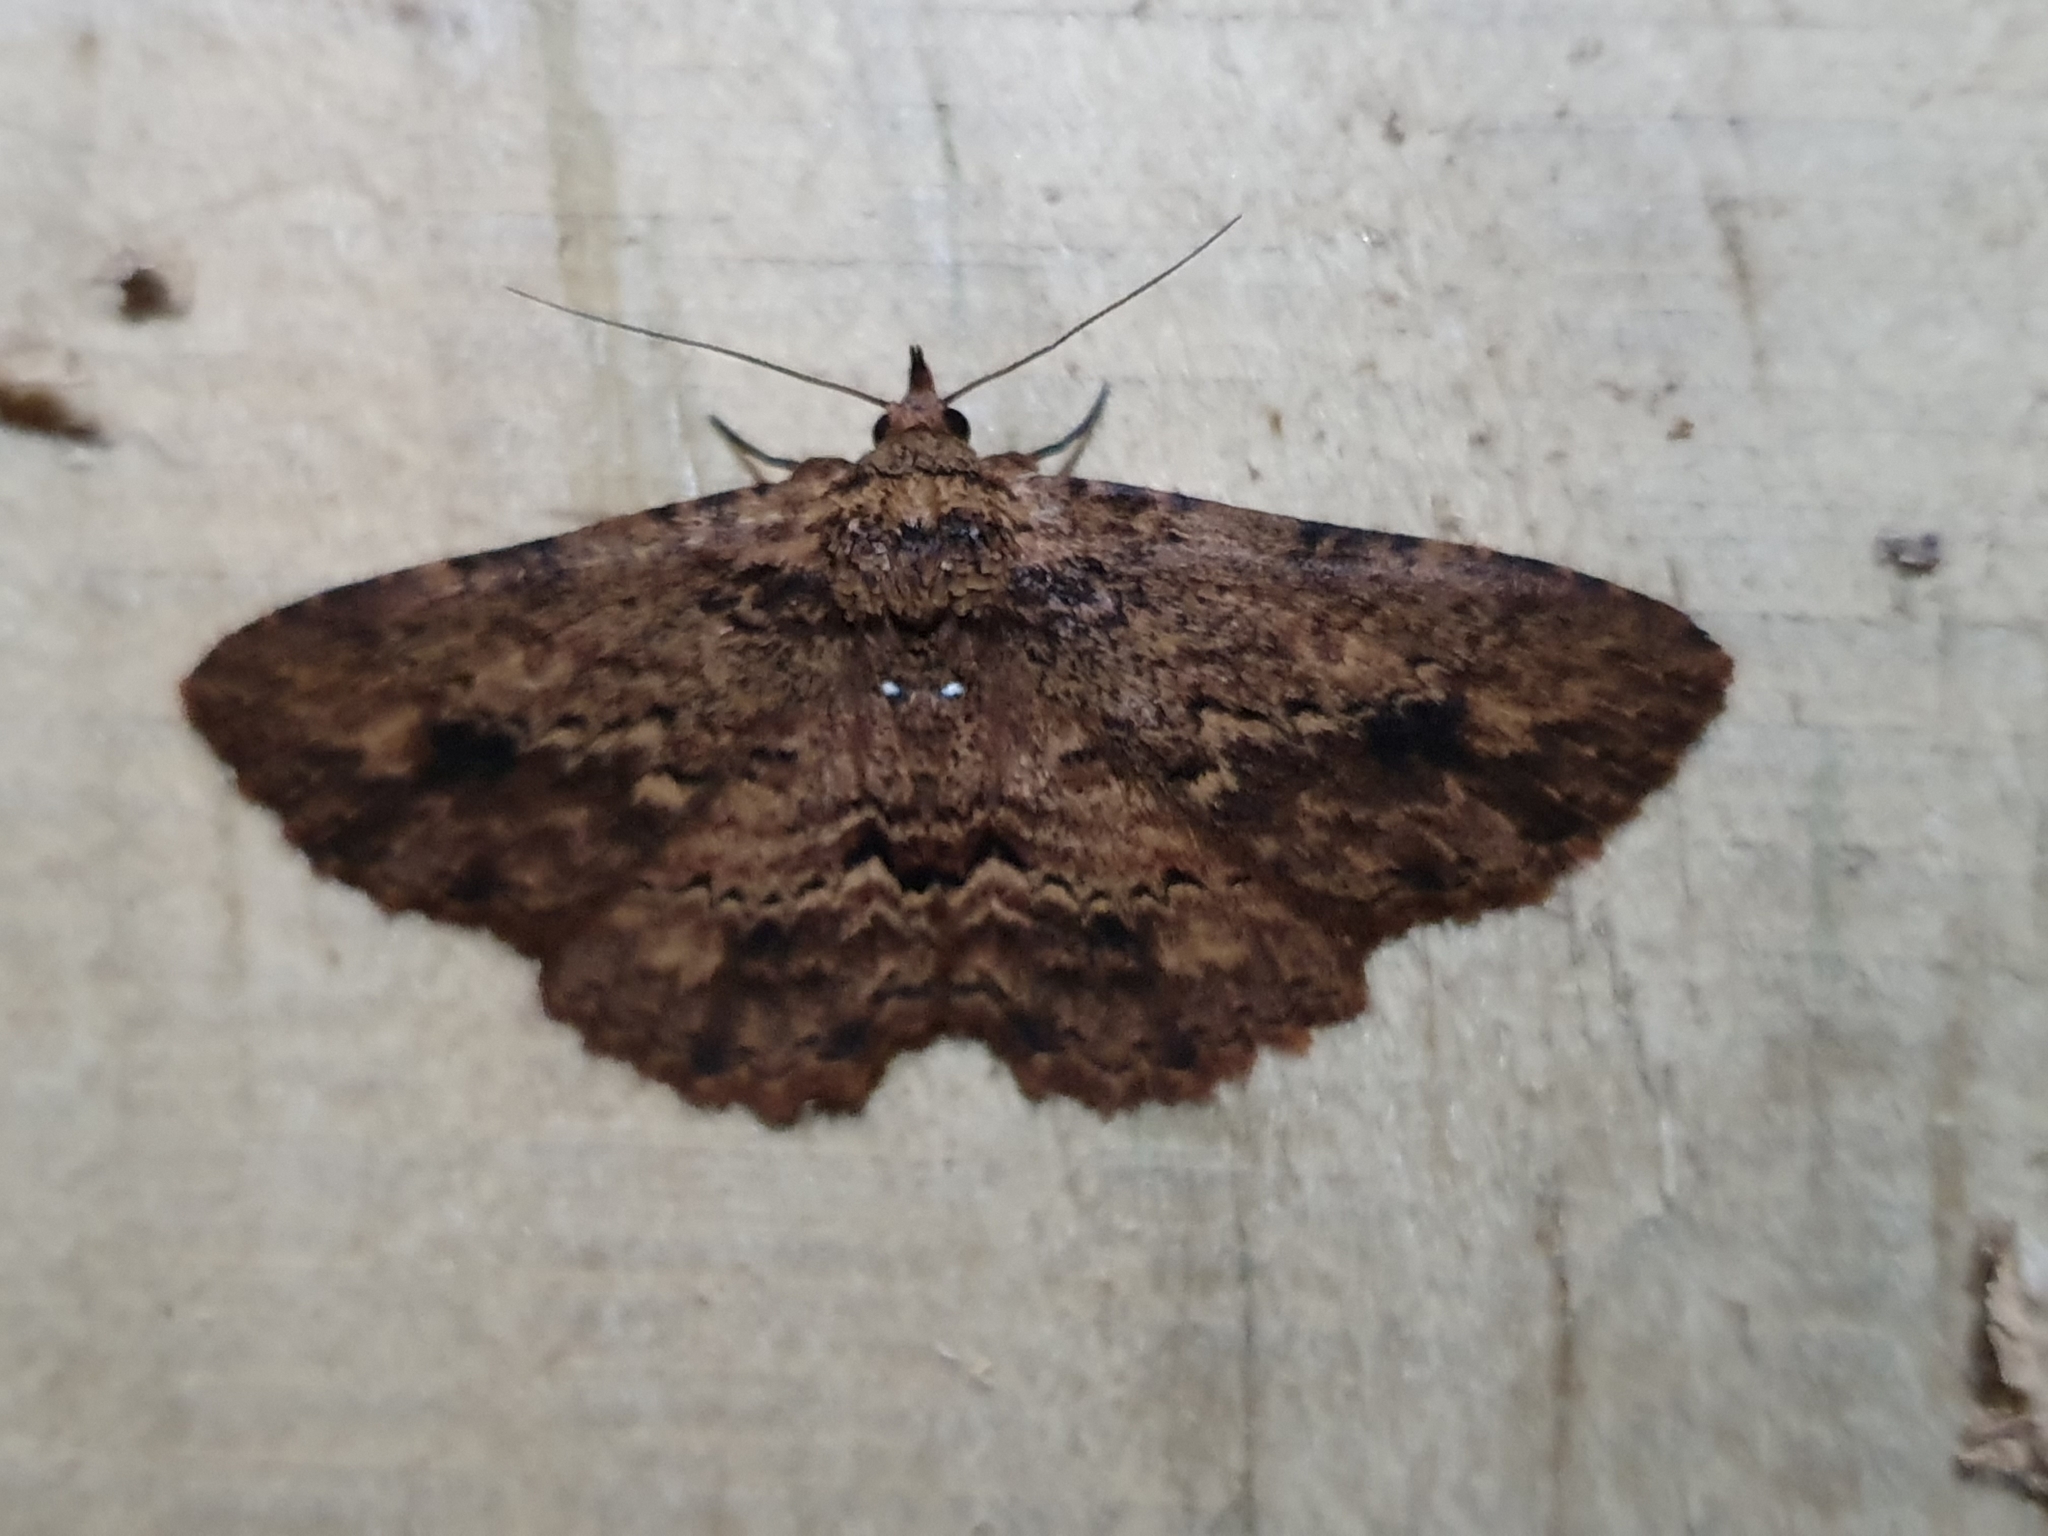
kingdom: Animalia
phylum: Arthropoda
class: Insecta
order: Lepidoptera
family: Erebidae
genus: Artigisa
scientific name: Artigisa melanephele
